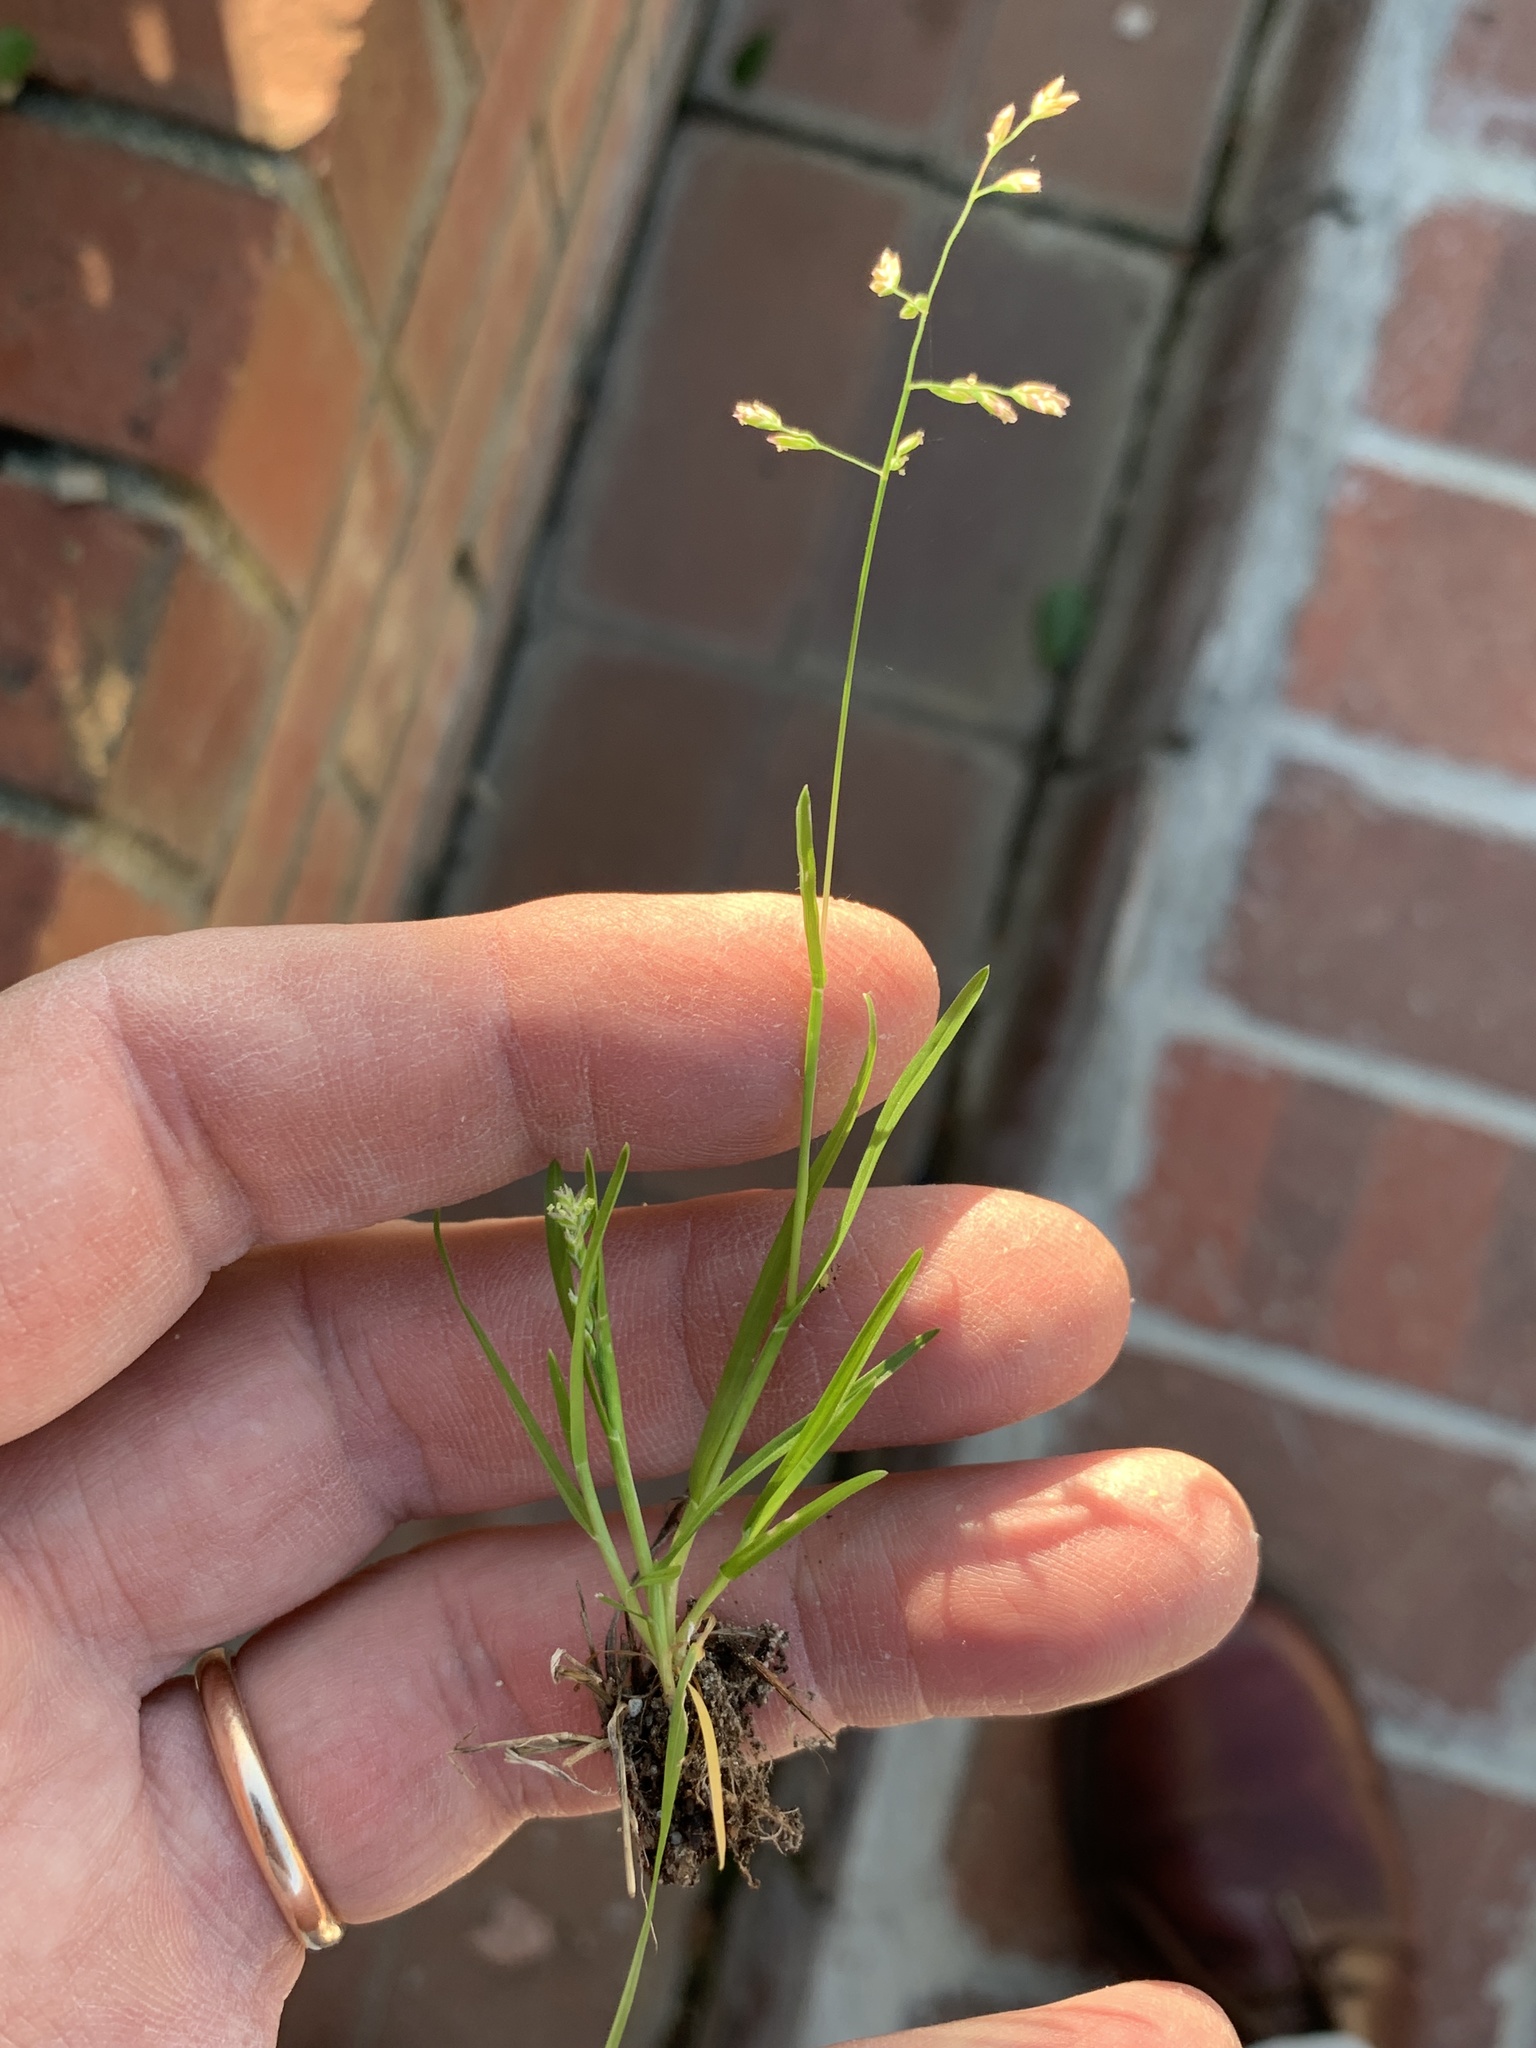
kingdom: Plantae
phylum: Tracheophyta
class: Liliopsida
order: Poales
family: Poaceae
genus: Poa
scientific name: Poa annua
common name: Annual bluegrass
